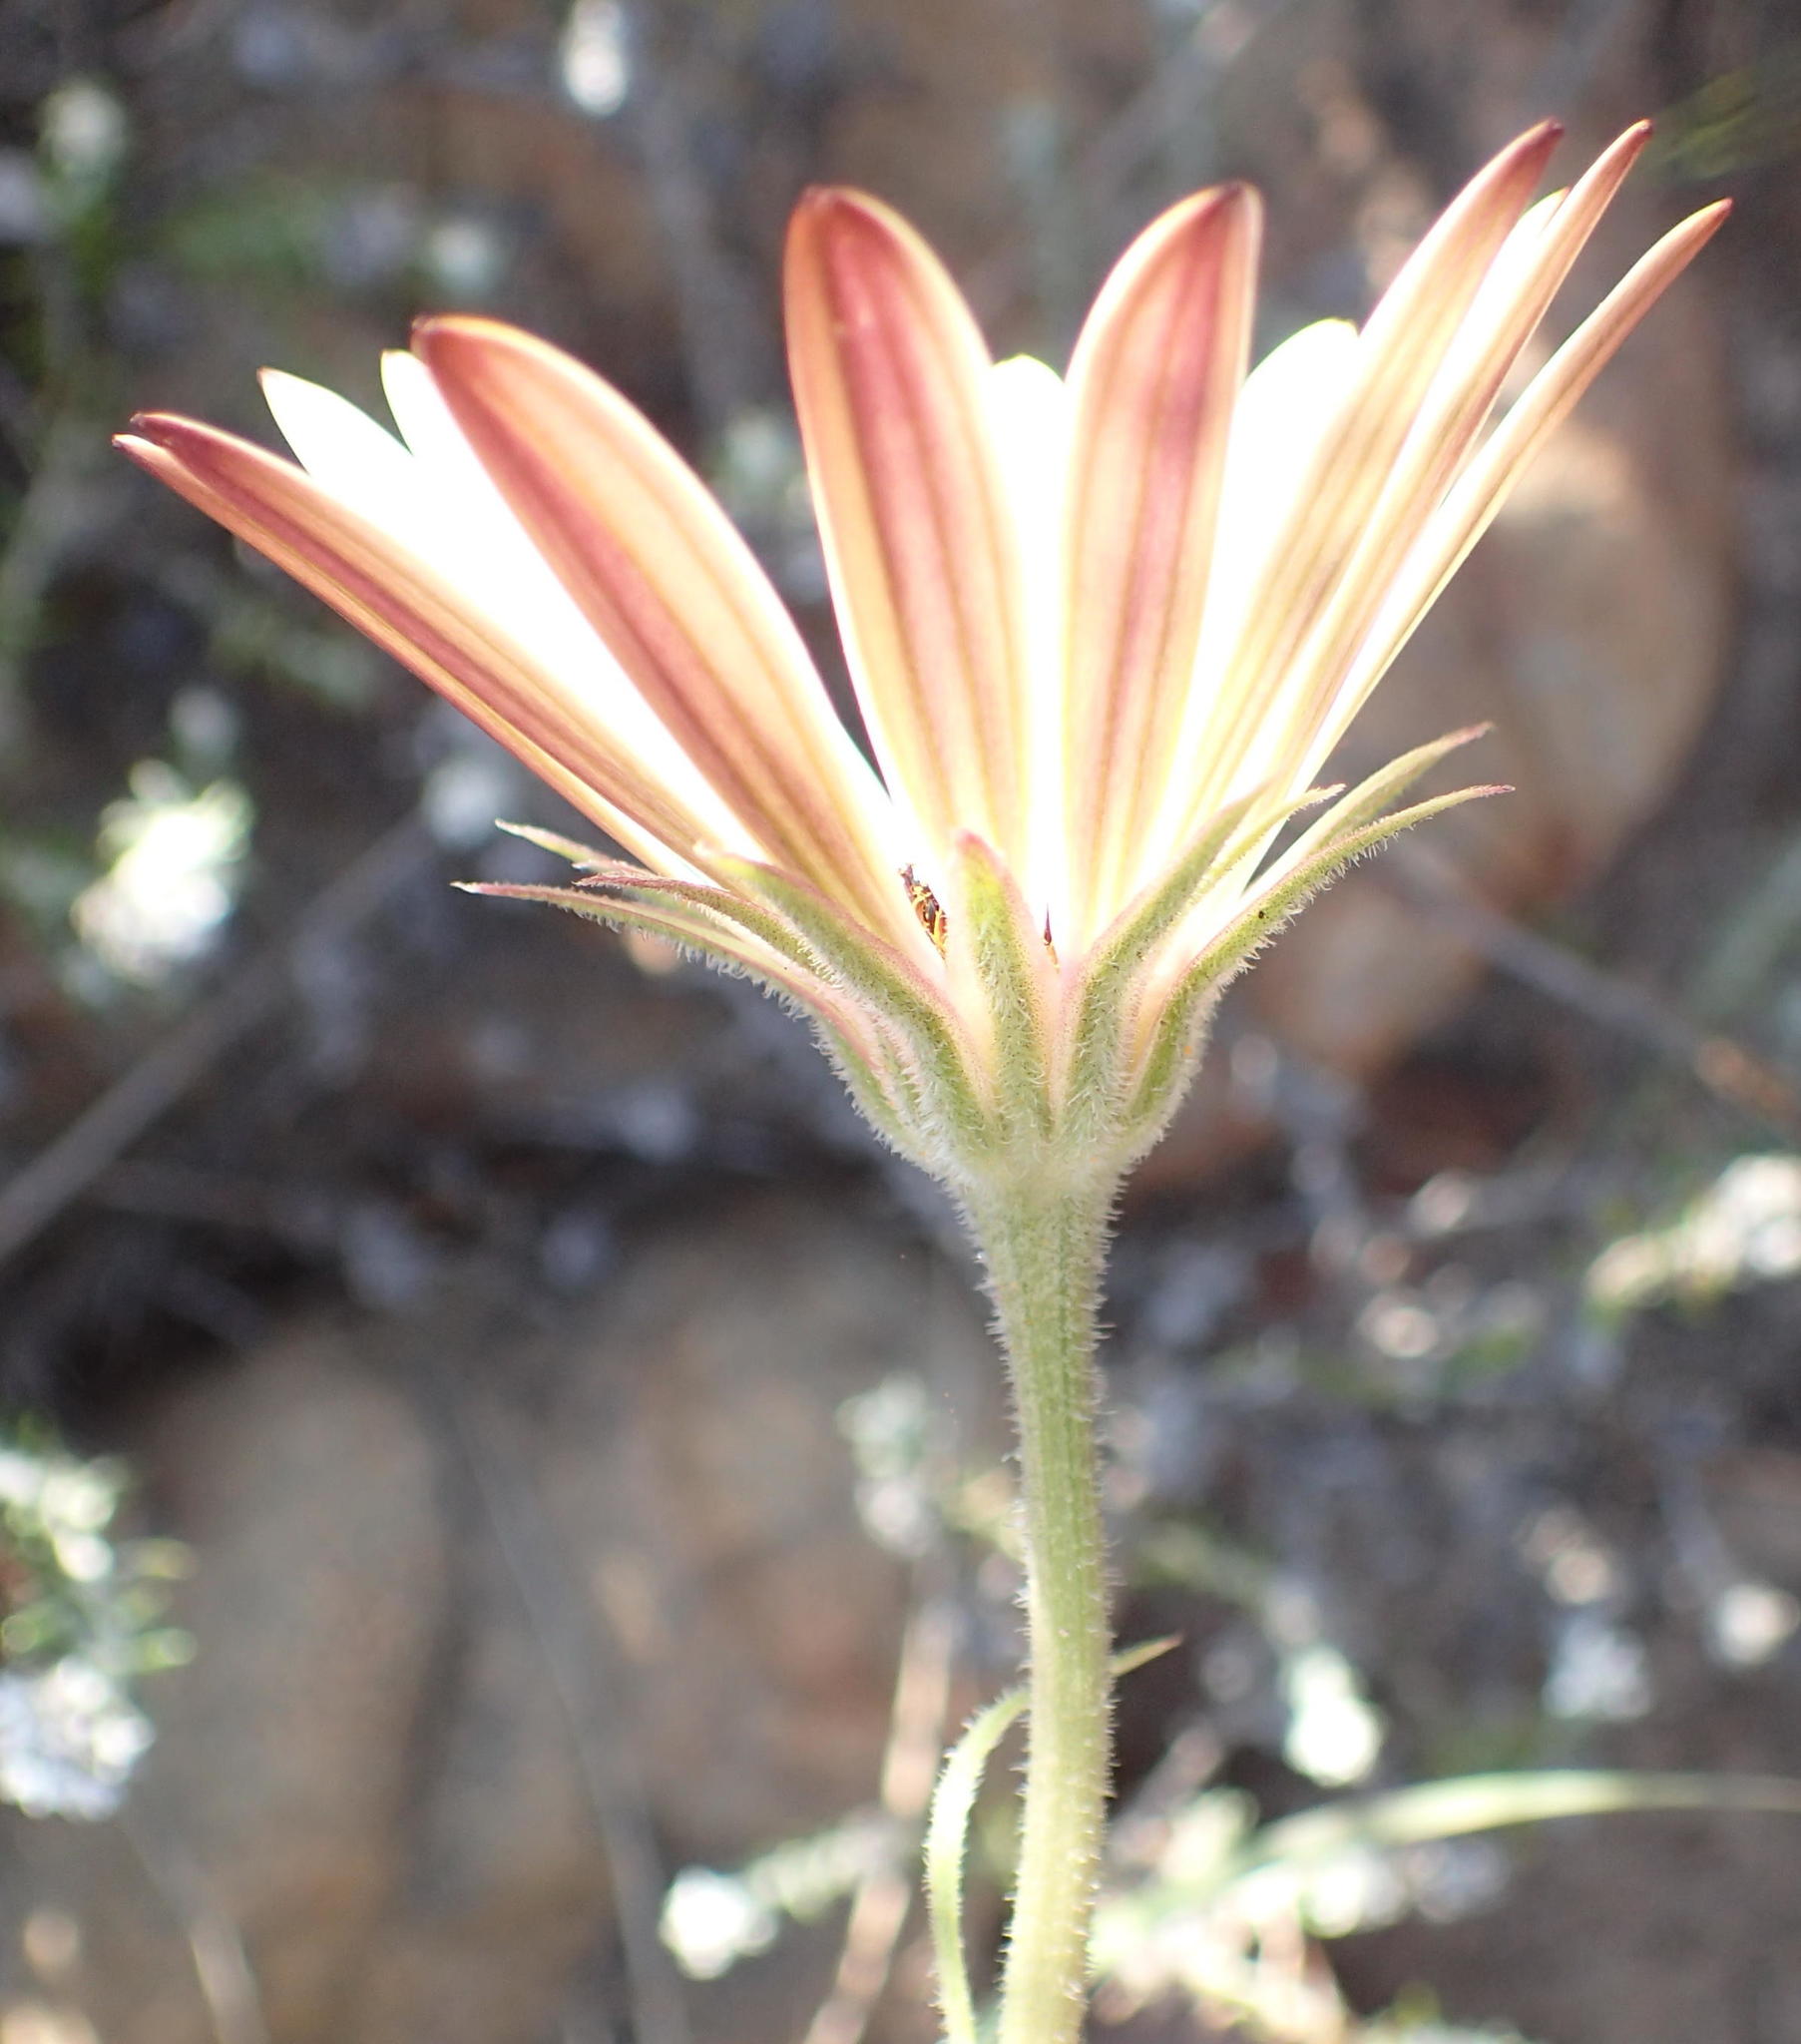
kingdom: Plantae
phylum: Tracheophyta
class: Magnoliopsida
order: Asterales
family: Asteraceae
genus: Dimorphotheca
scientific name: Dimorphotheca nudicaulis
